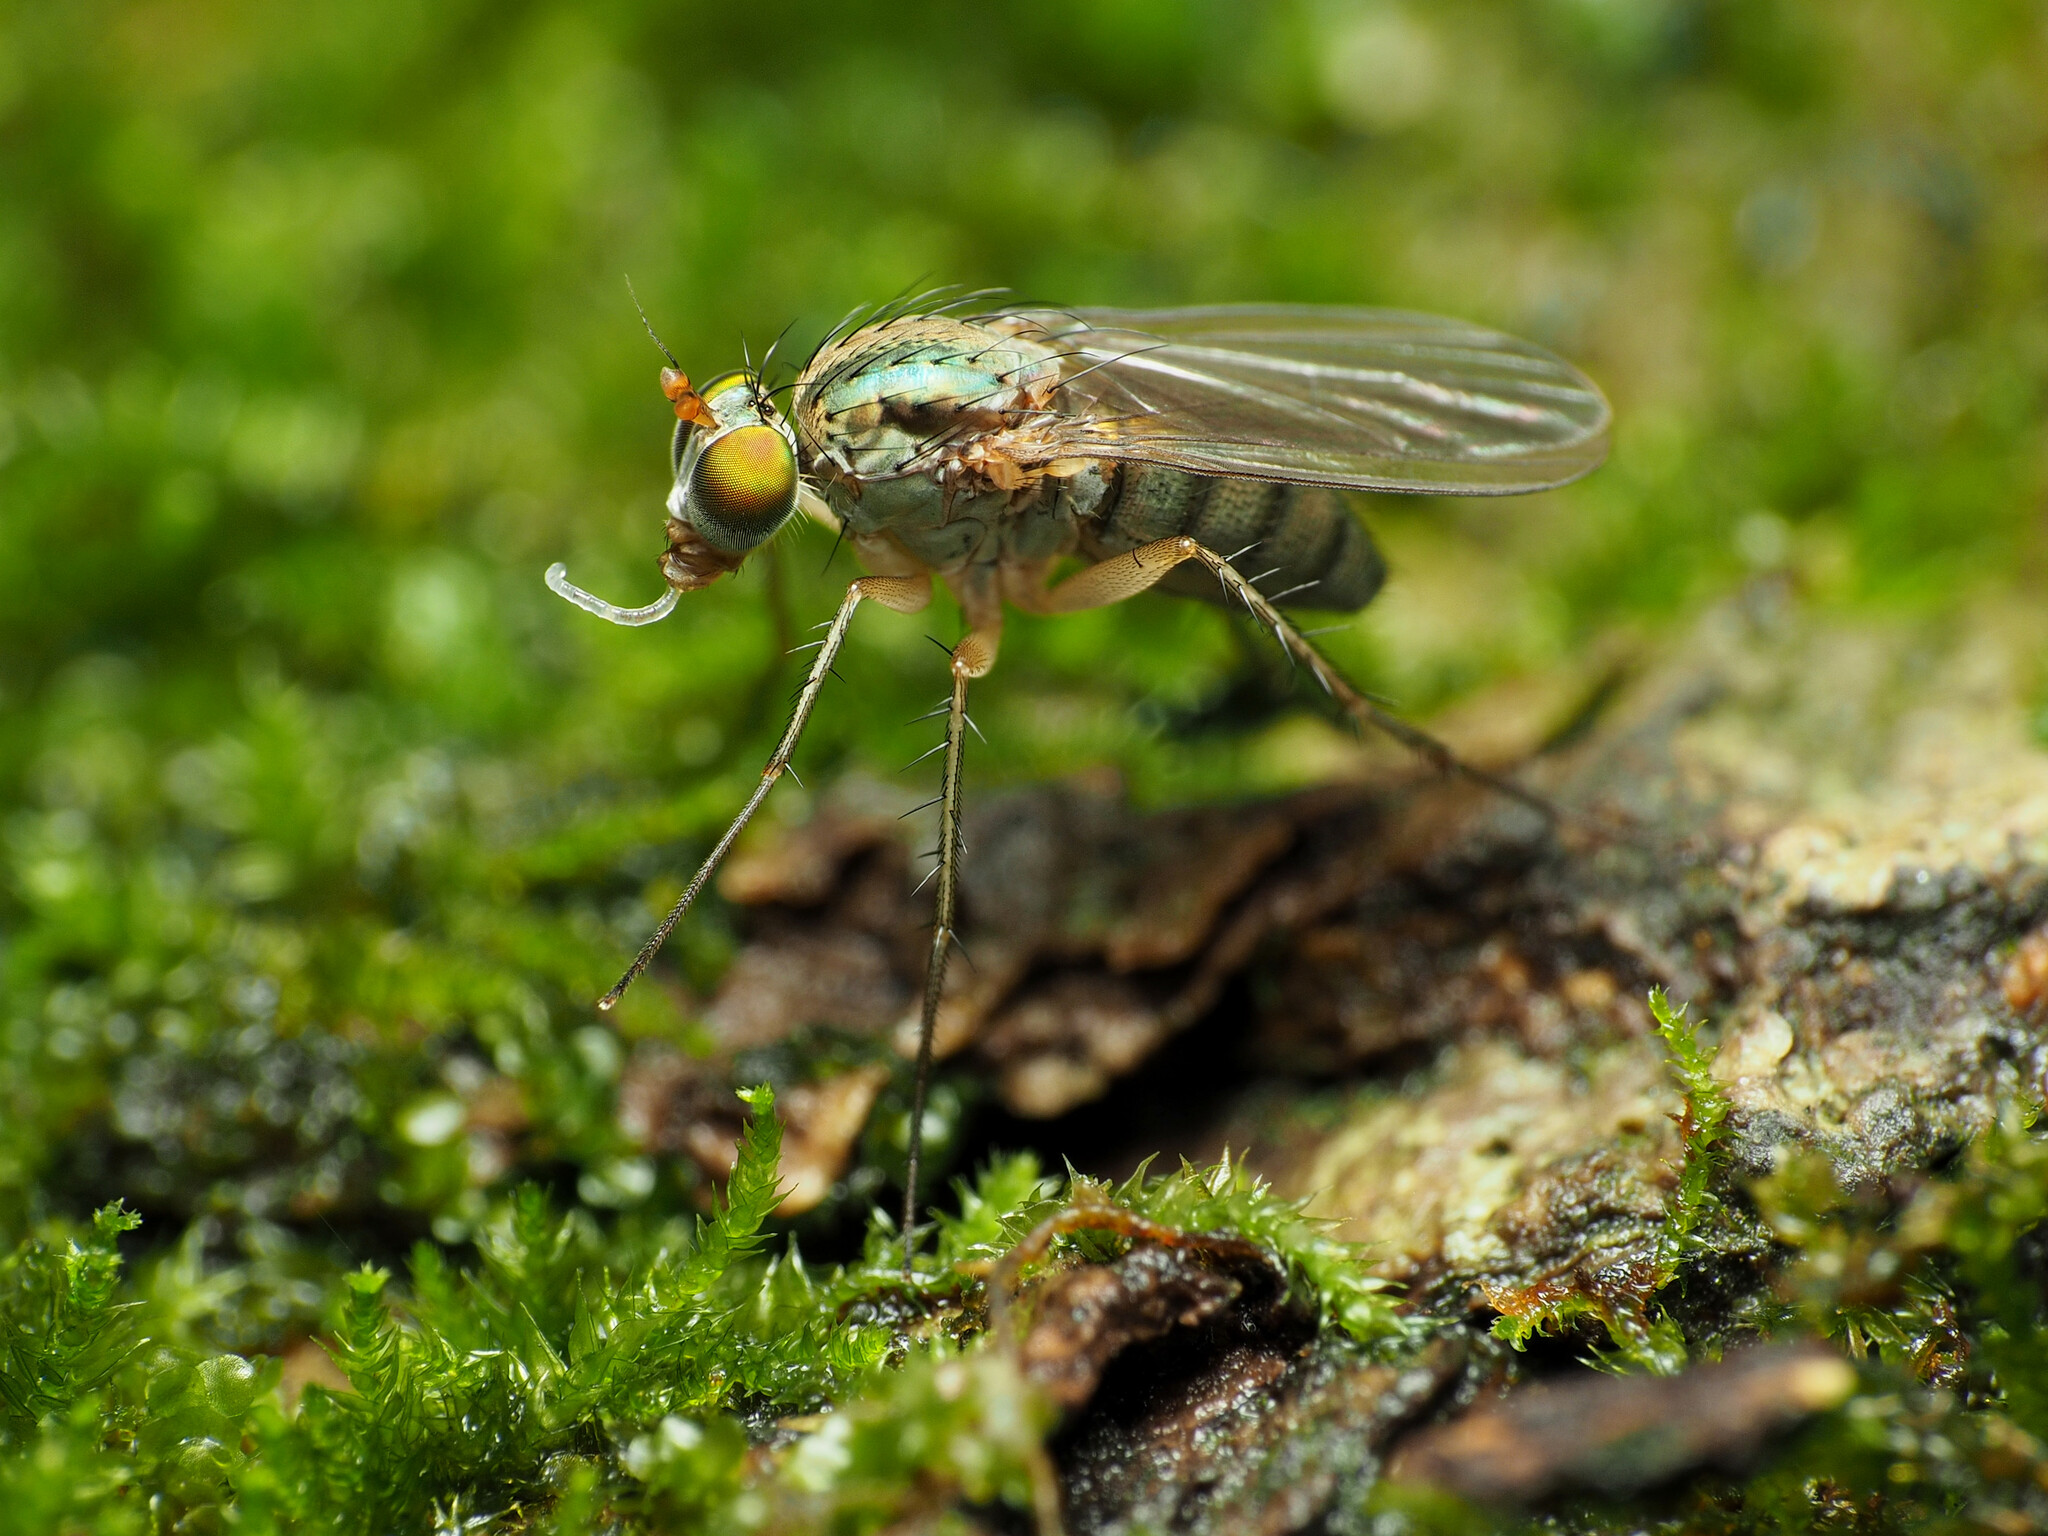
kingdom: Animalia
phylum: Arthropoda
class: Insecta
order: Diptera
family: Dolichopodidae
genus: Dolichopus
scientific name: Dolichopus
